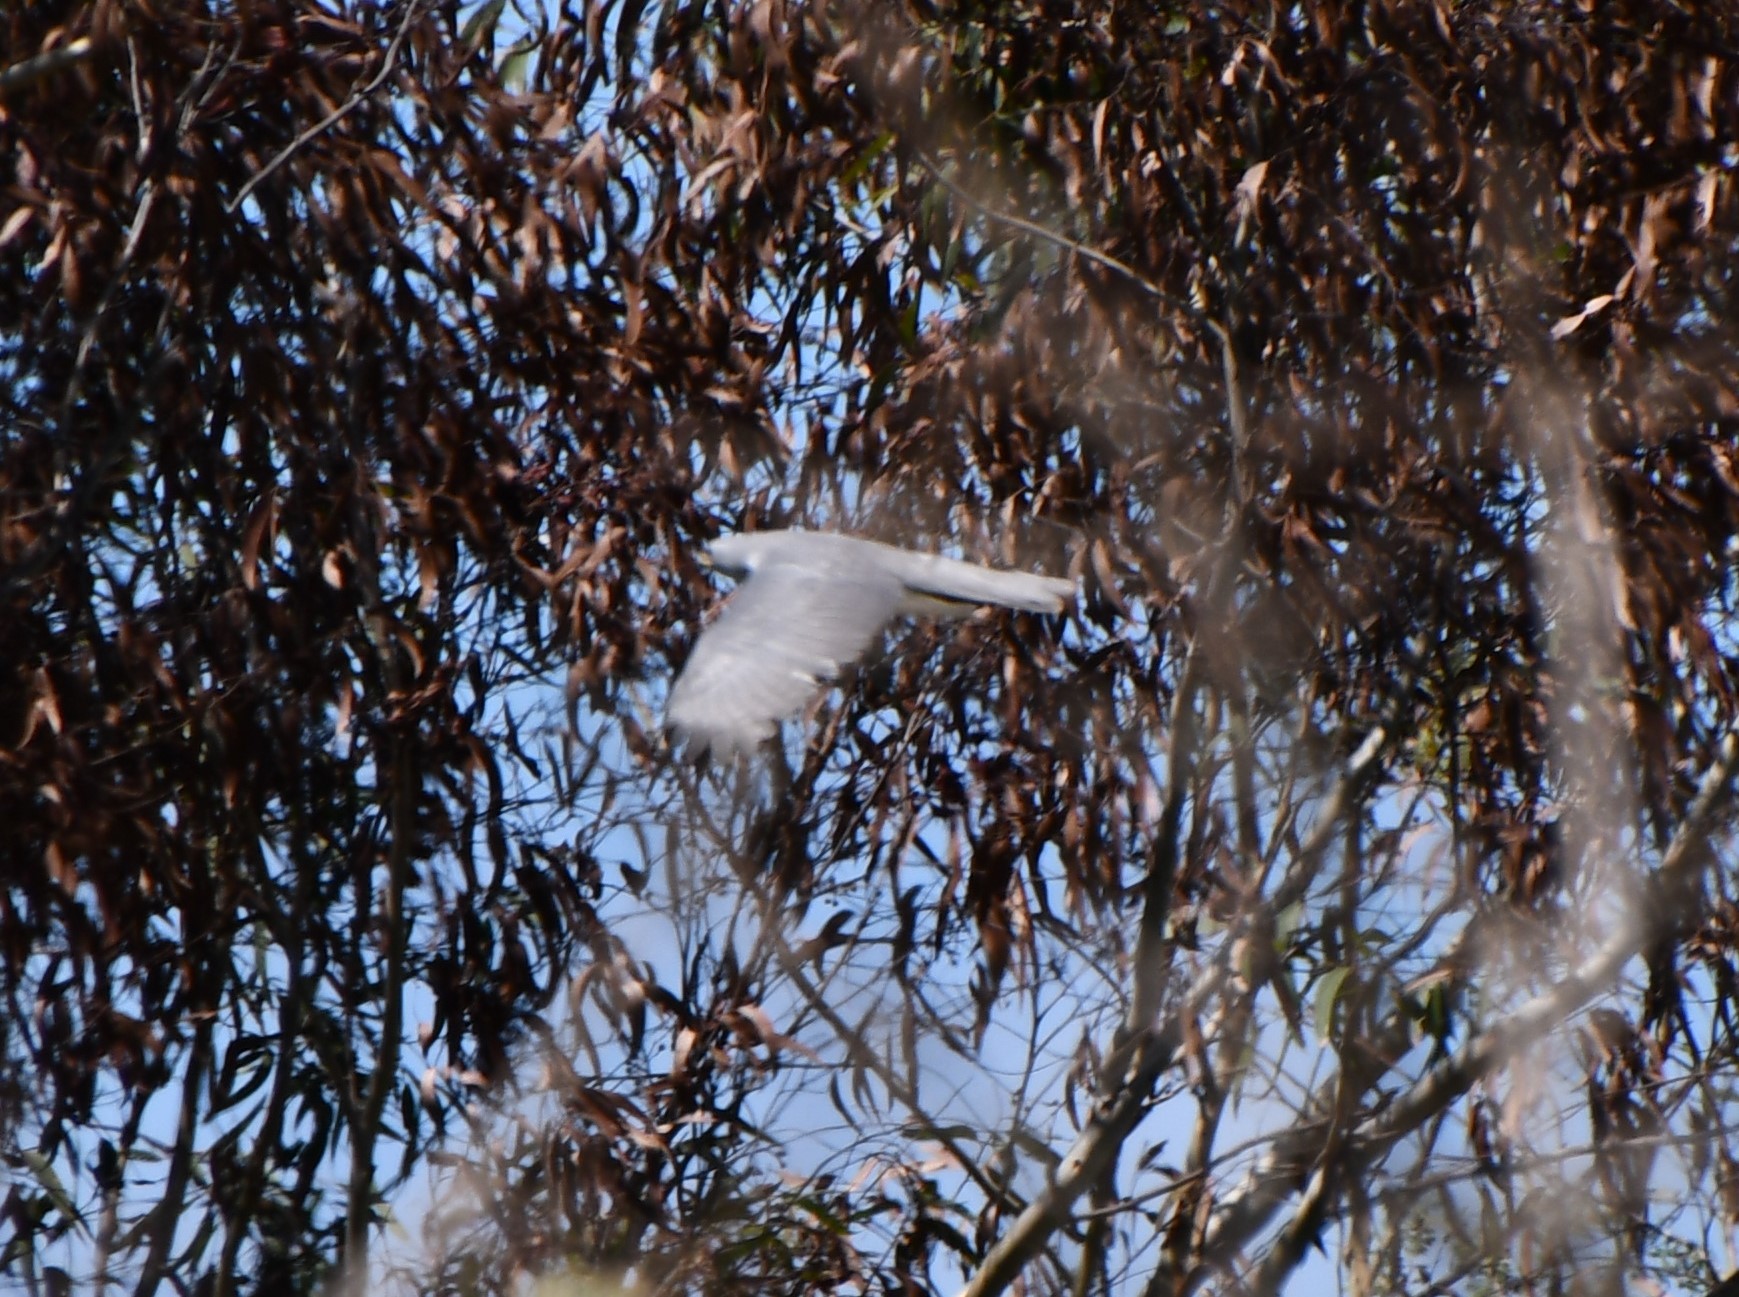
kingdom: Animalia
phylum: Chordata
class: Aves
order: Accipitriformes
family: Accipitridae
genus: Accipiter
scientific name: Accipiter novaehollandiae
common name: Grey goshawk
